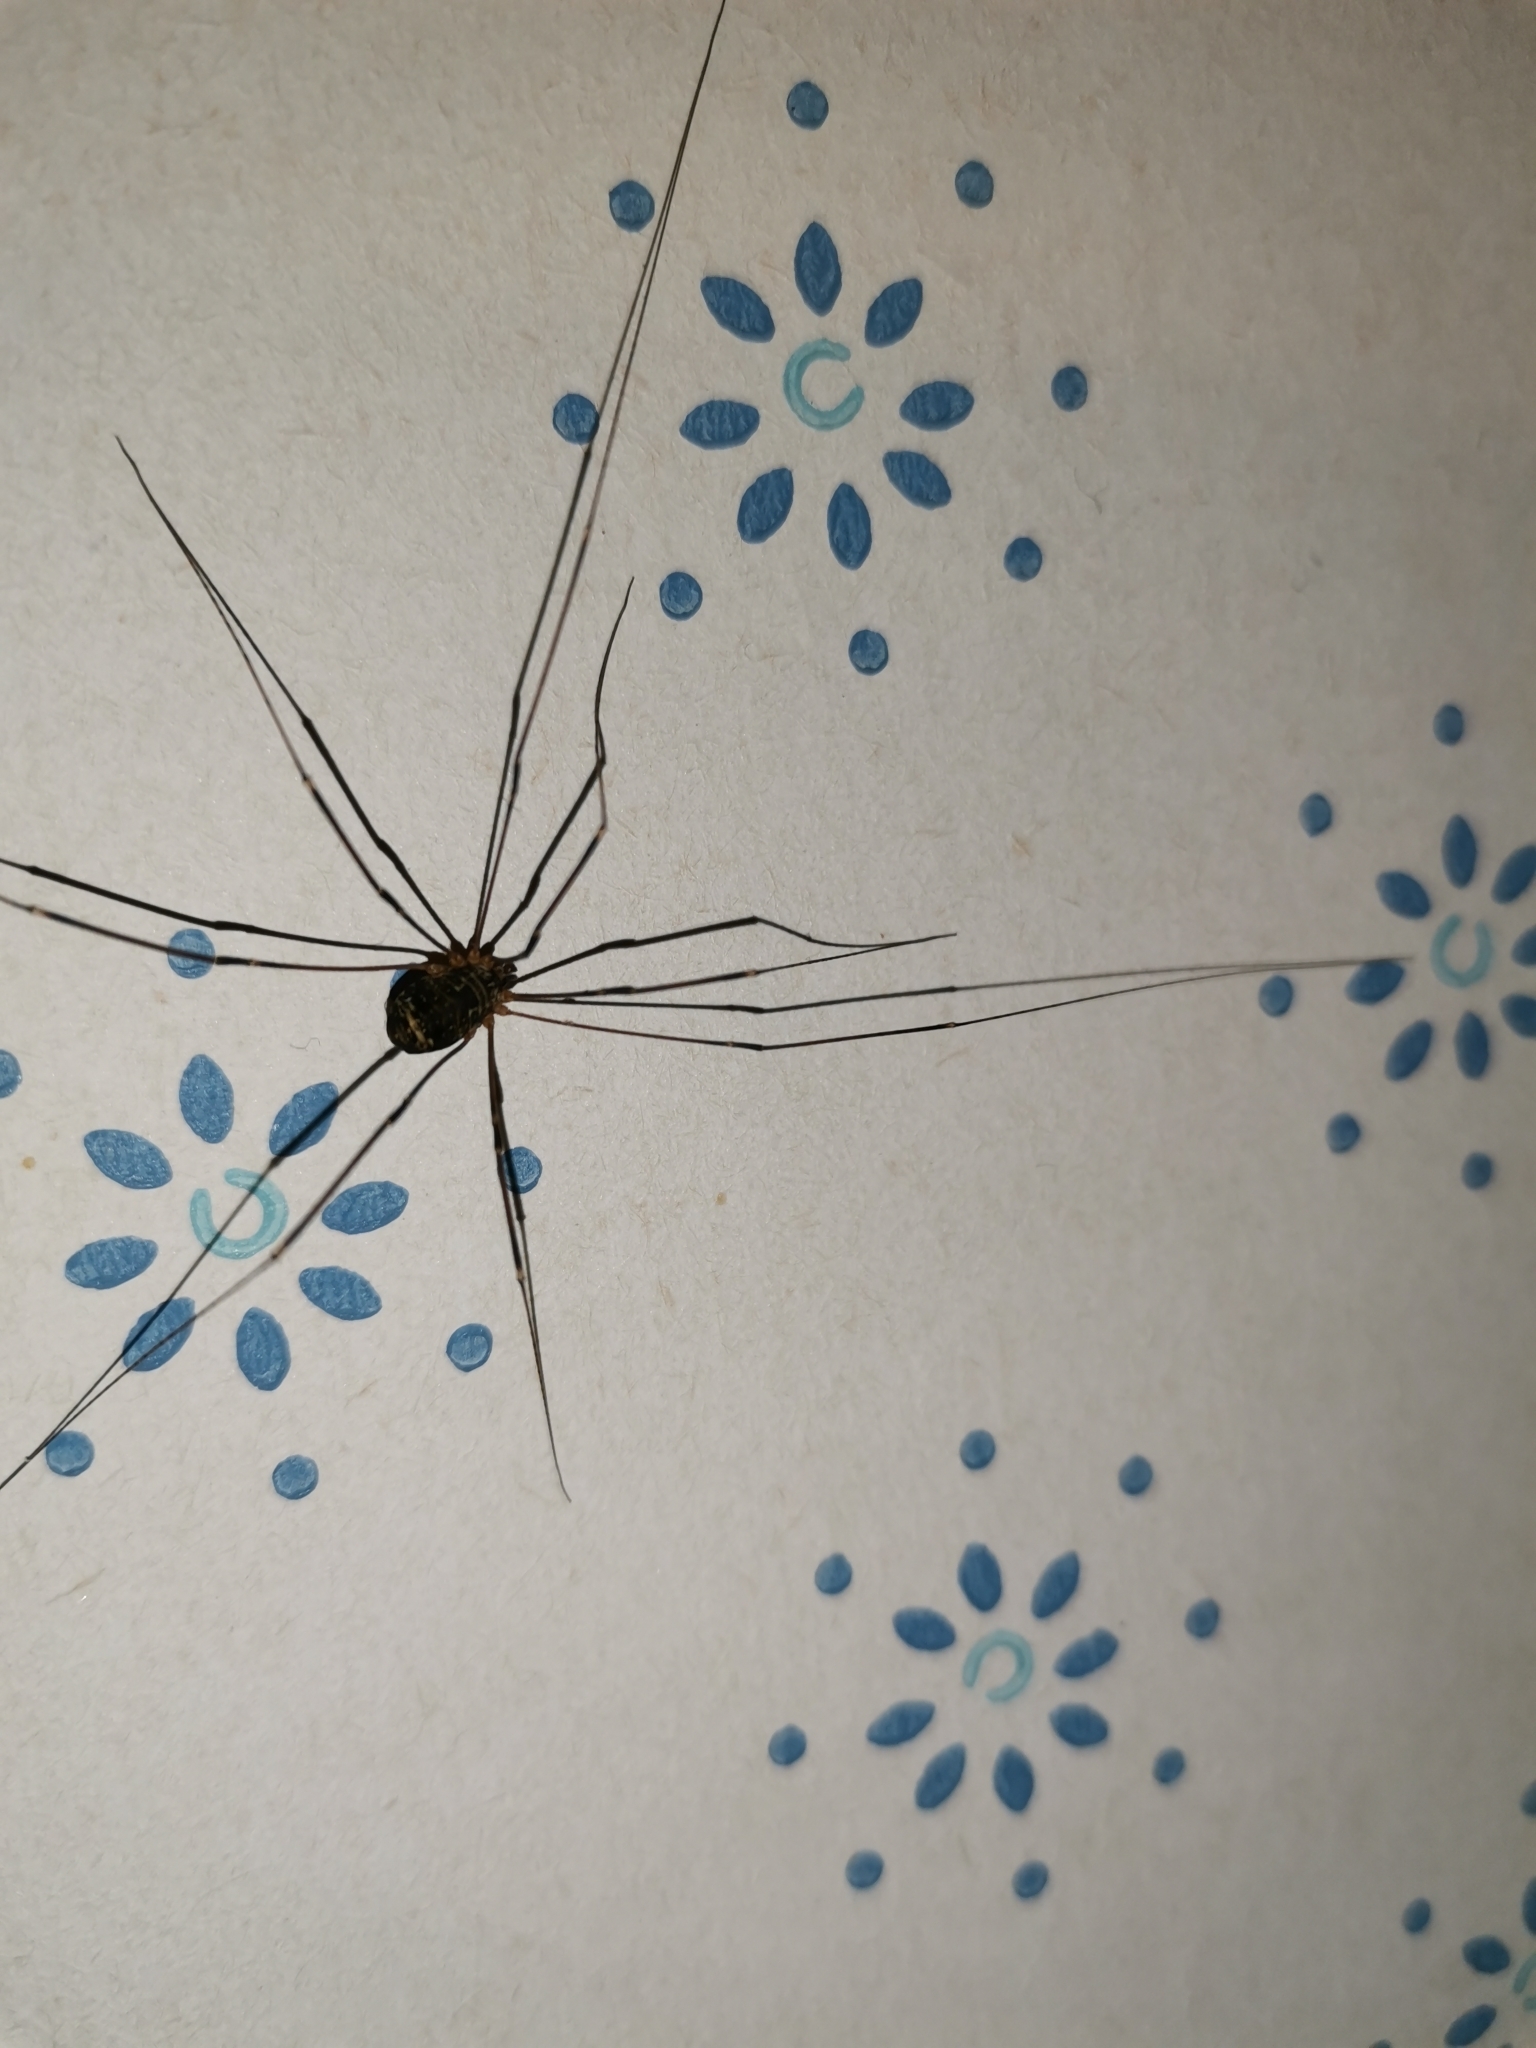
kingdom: Animalia
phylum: Arthropoda
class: Arachnida
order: Opiliones
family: Sclerosomatidae
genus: Leiobunum
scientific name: Leiobunum gracile
